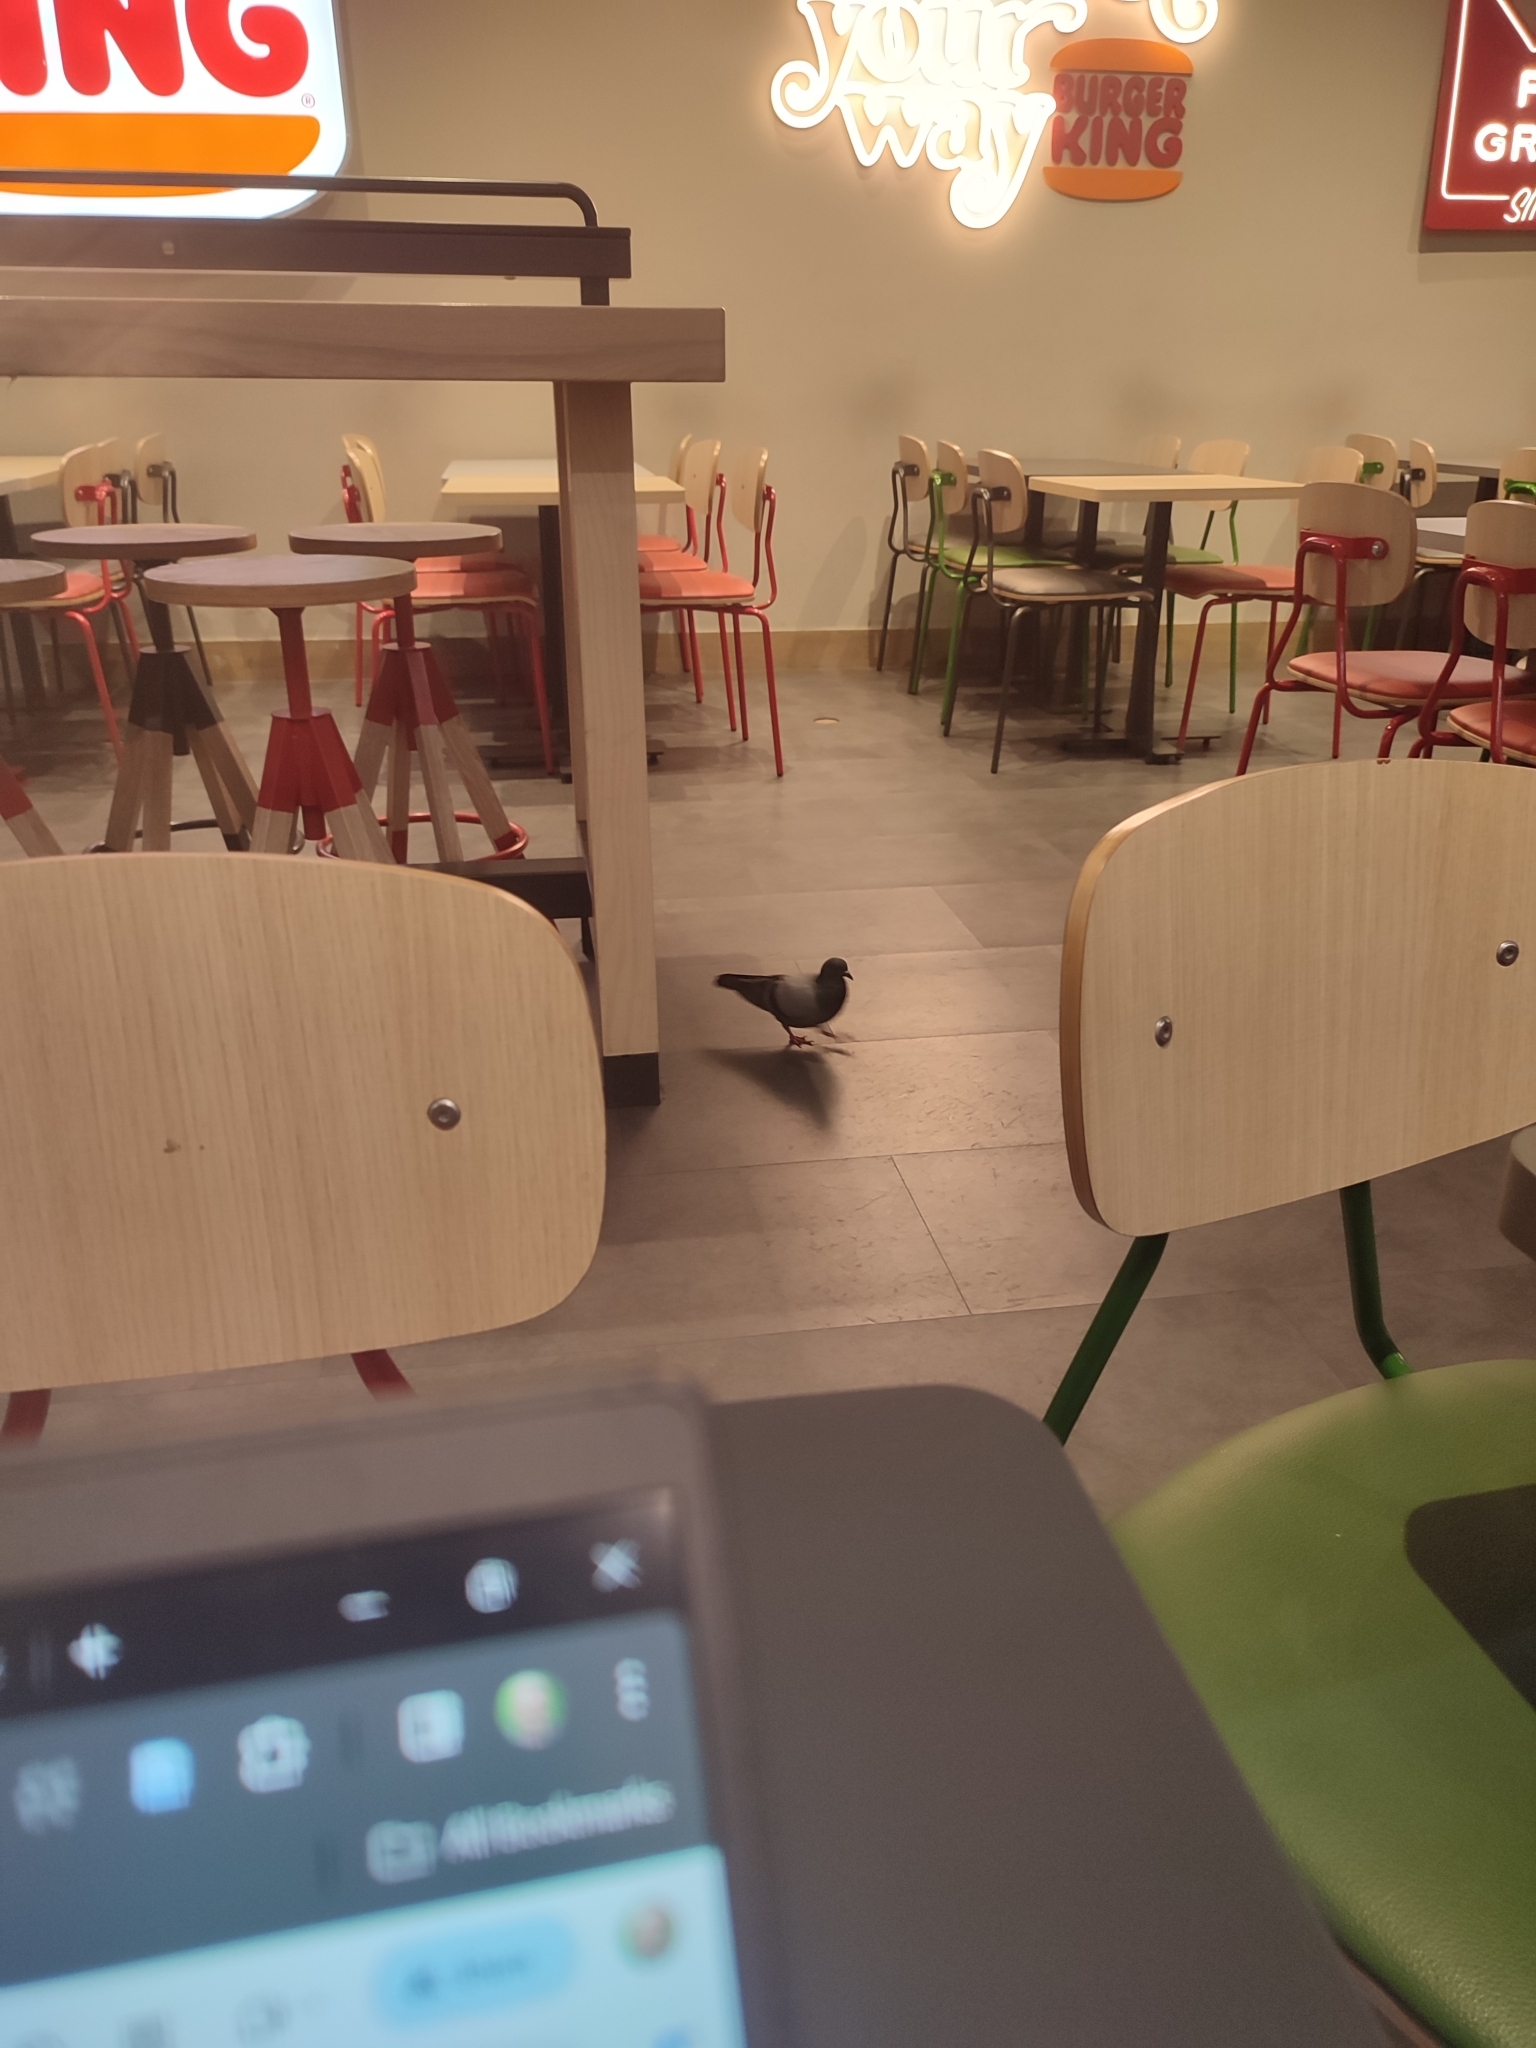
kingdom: Animalia
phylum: Chordata
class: Aves
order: Columbiformes
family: Columbidae
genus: Columba
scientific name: Columba livia
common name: Rock pigeon
